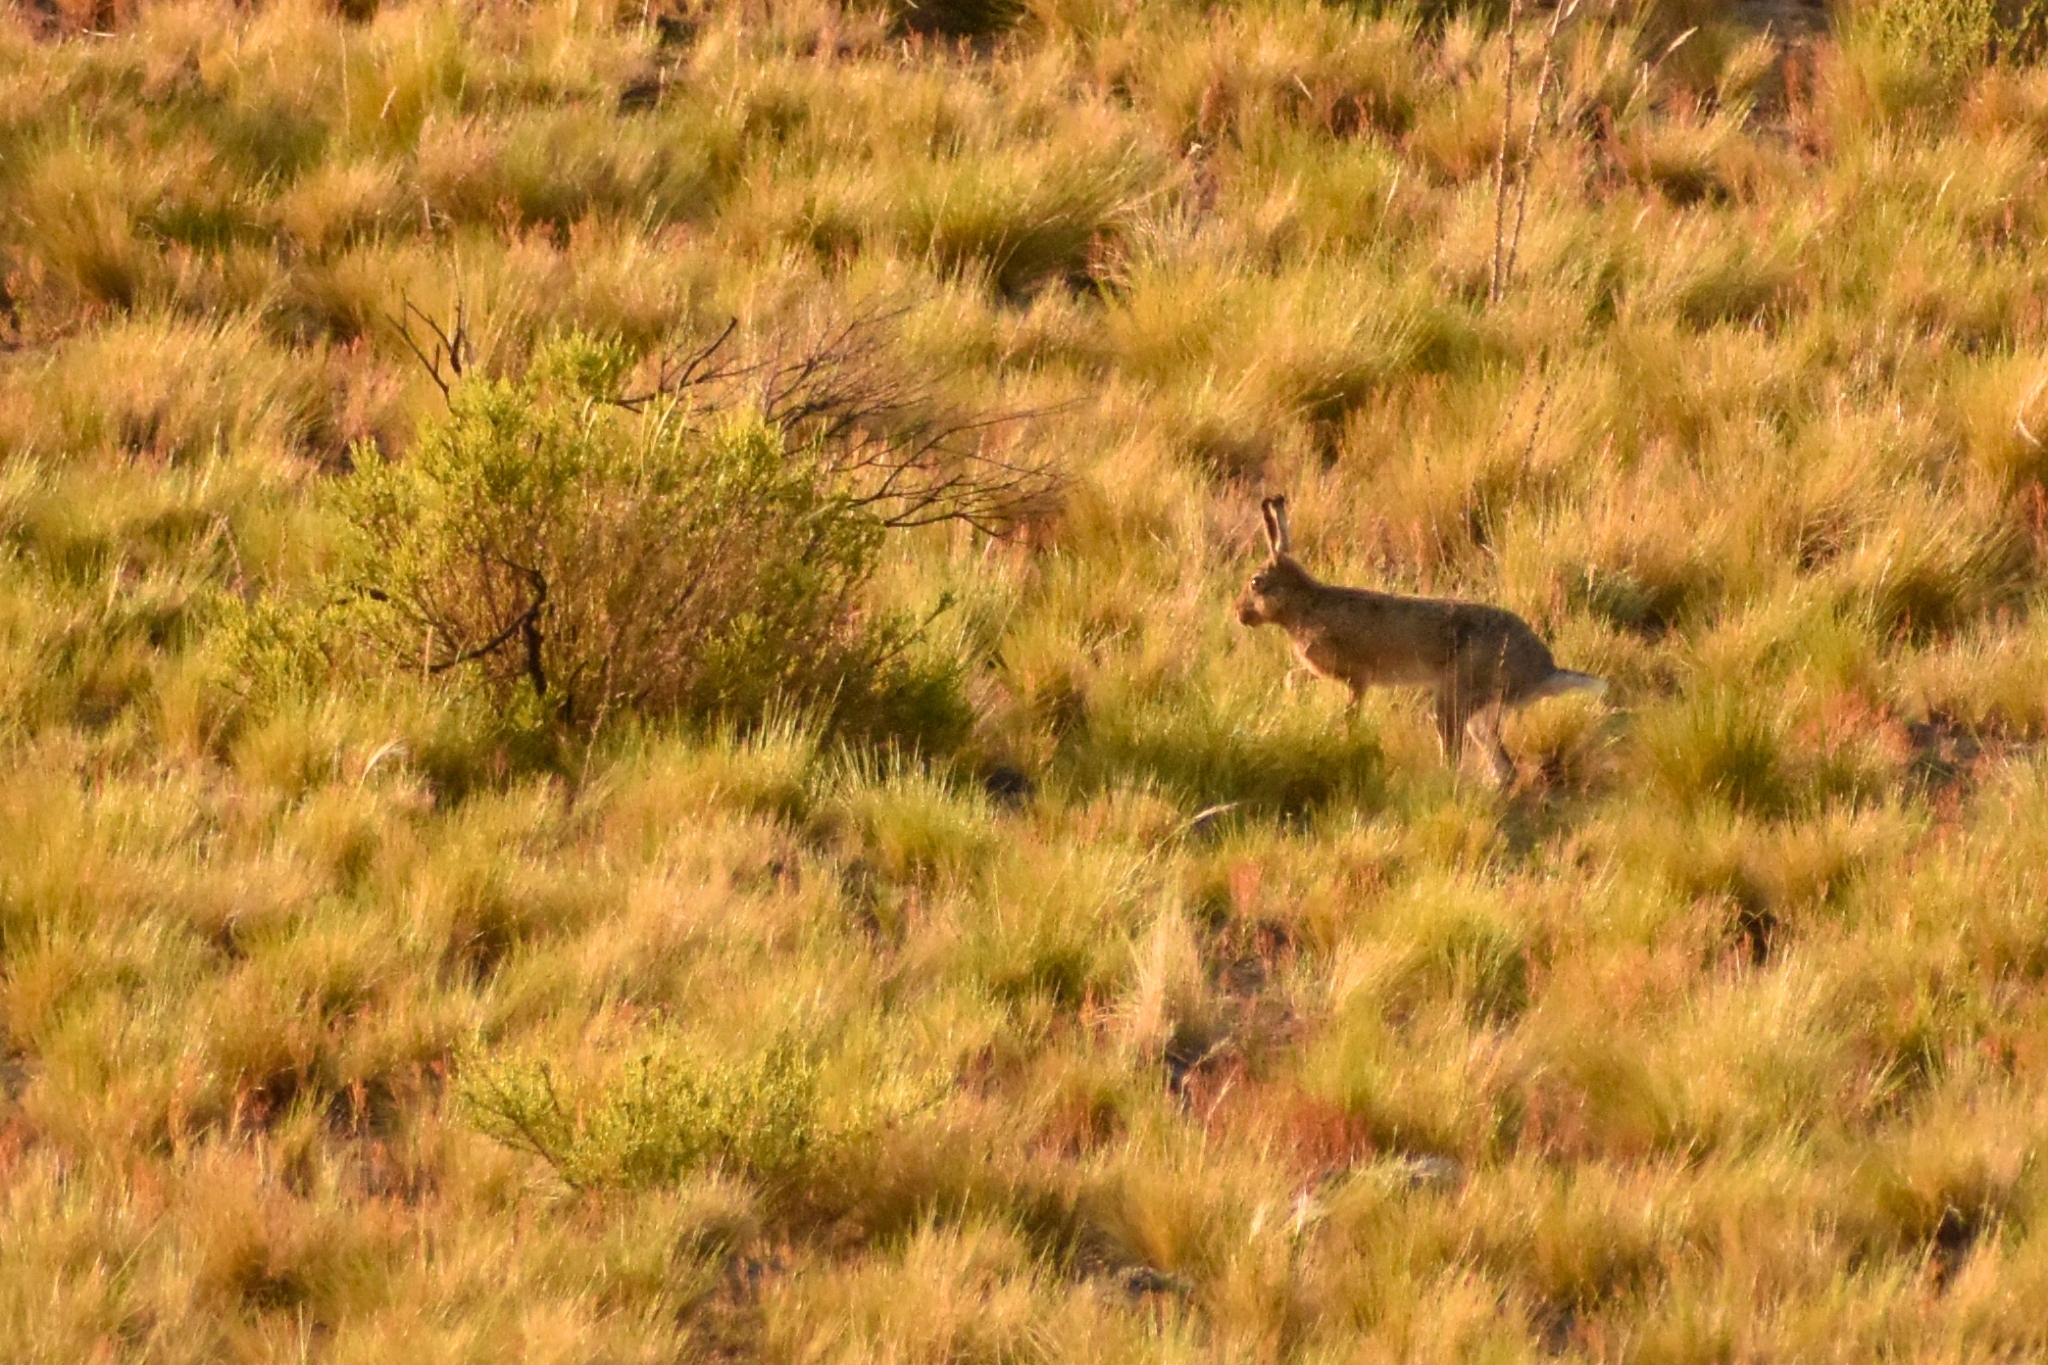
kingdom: Animalia
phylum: Chordata
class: Mammalia
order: Lagomorpha
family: Leporidae
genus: Lepus
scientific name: Lepus europaeus
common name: European hare
